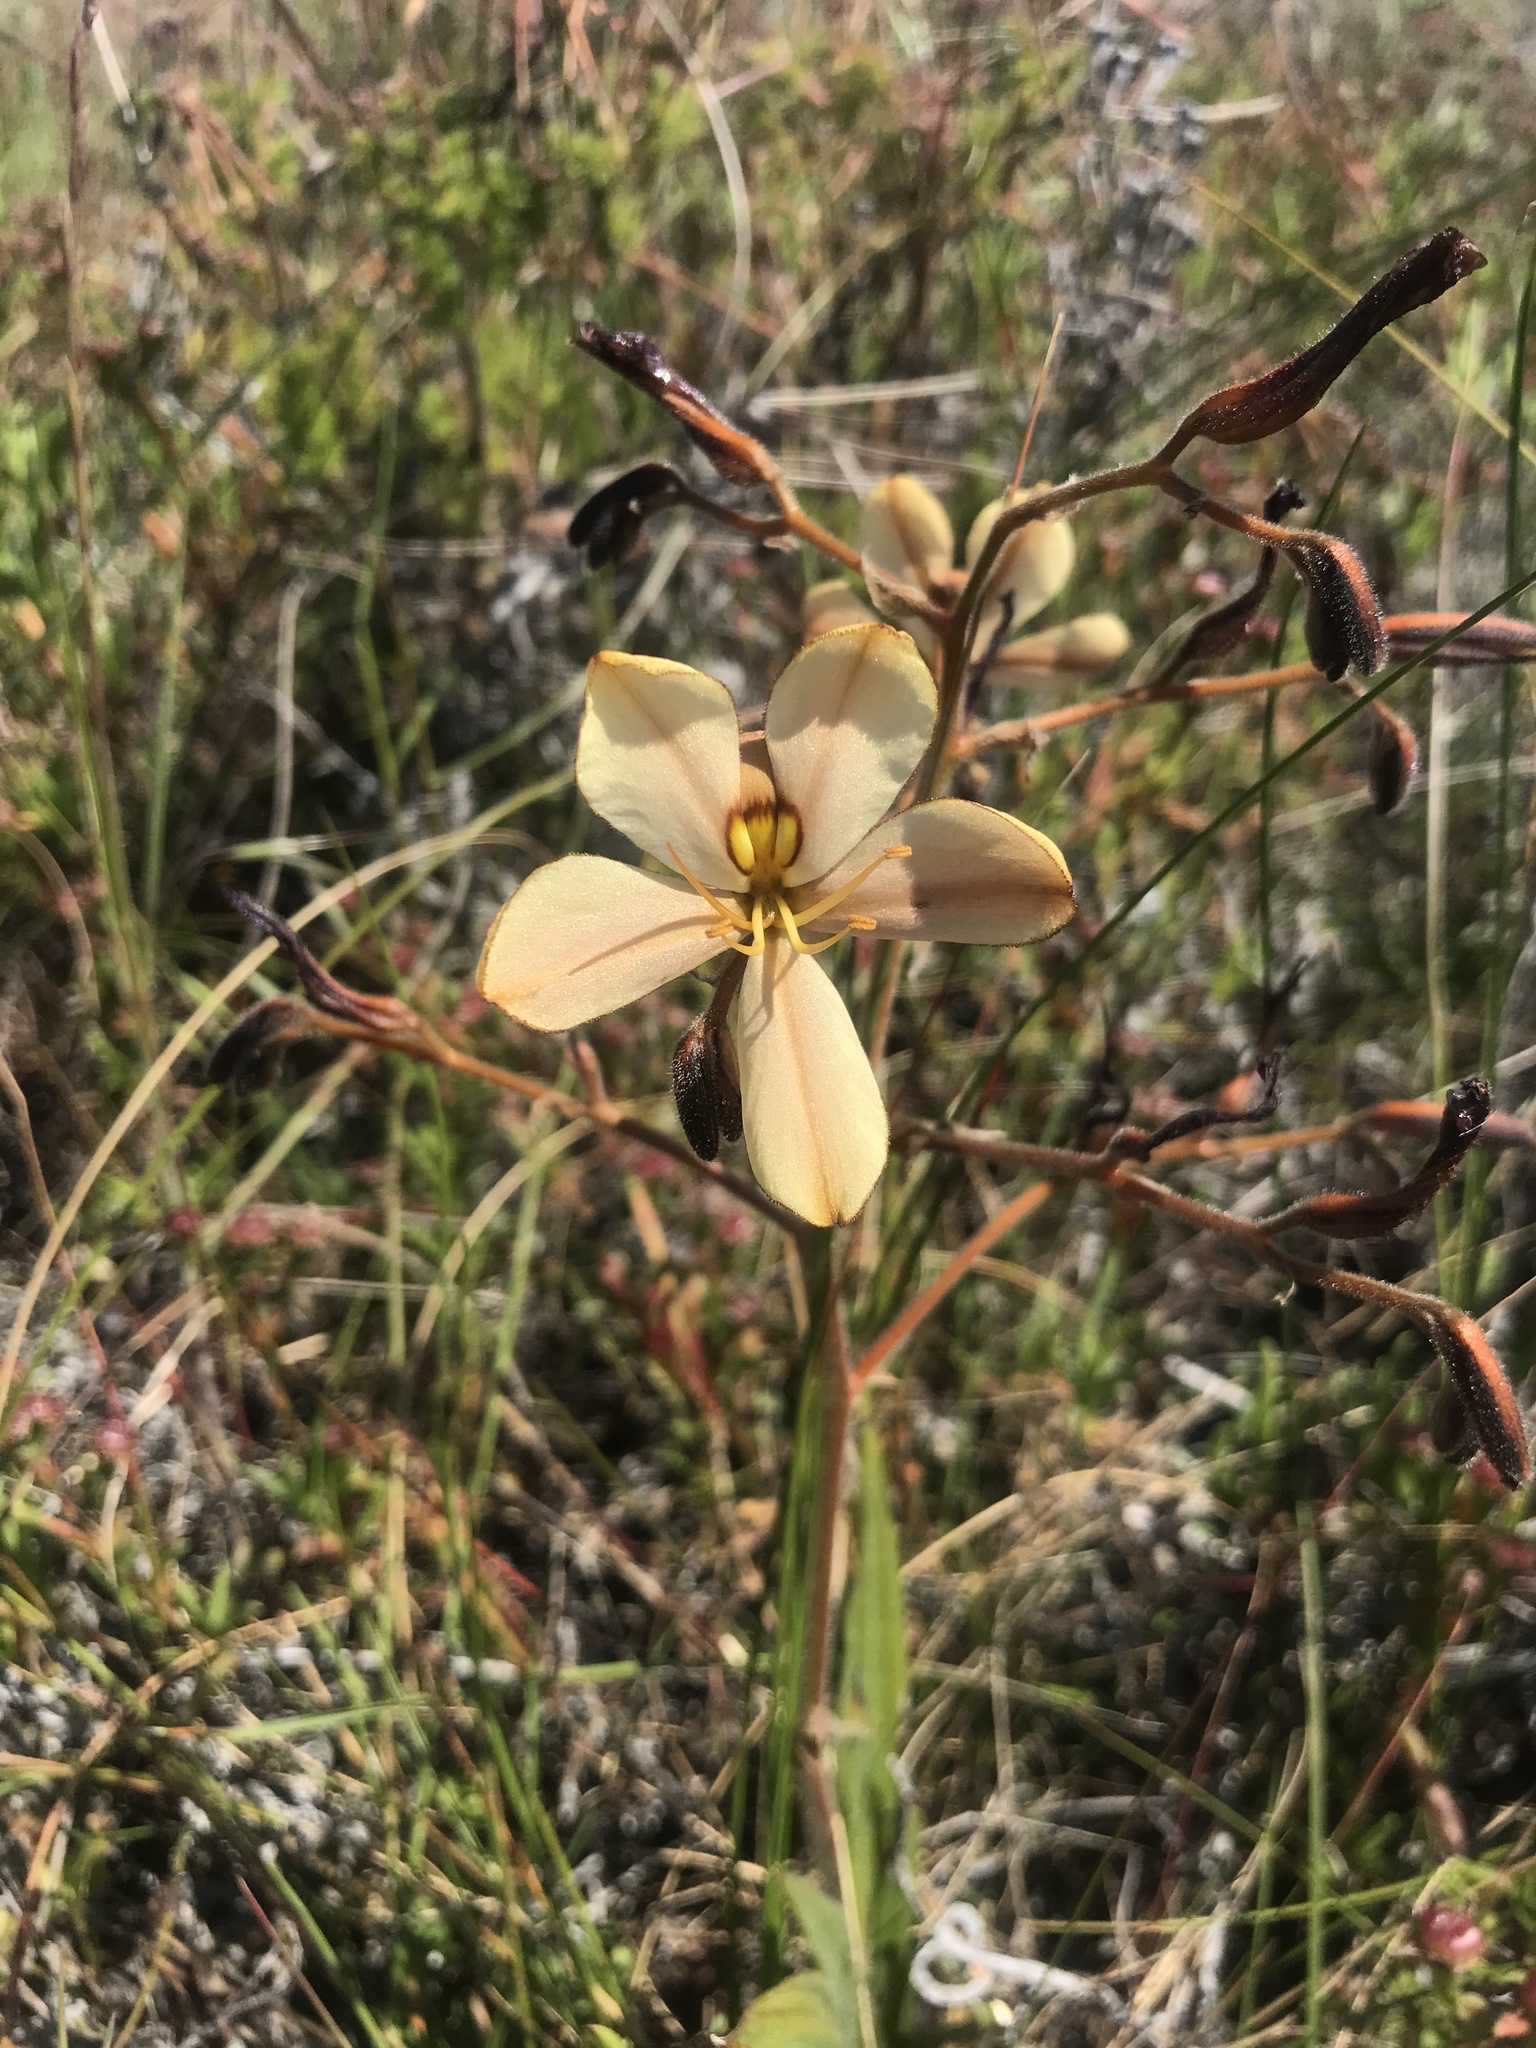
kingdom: Plantae
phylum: Tracheophyta
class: Liliopsida
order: Commelinales
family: Haemodoraceae
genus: Wachendorfia
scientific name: Wachendorfia paniculata
